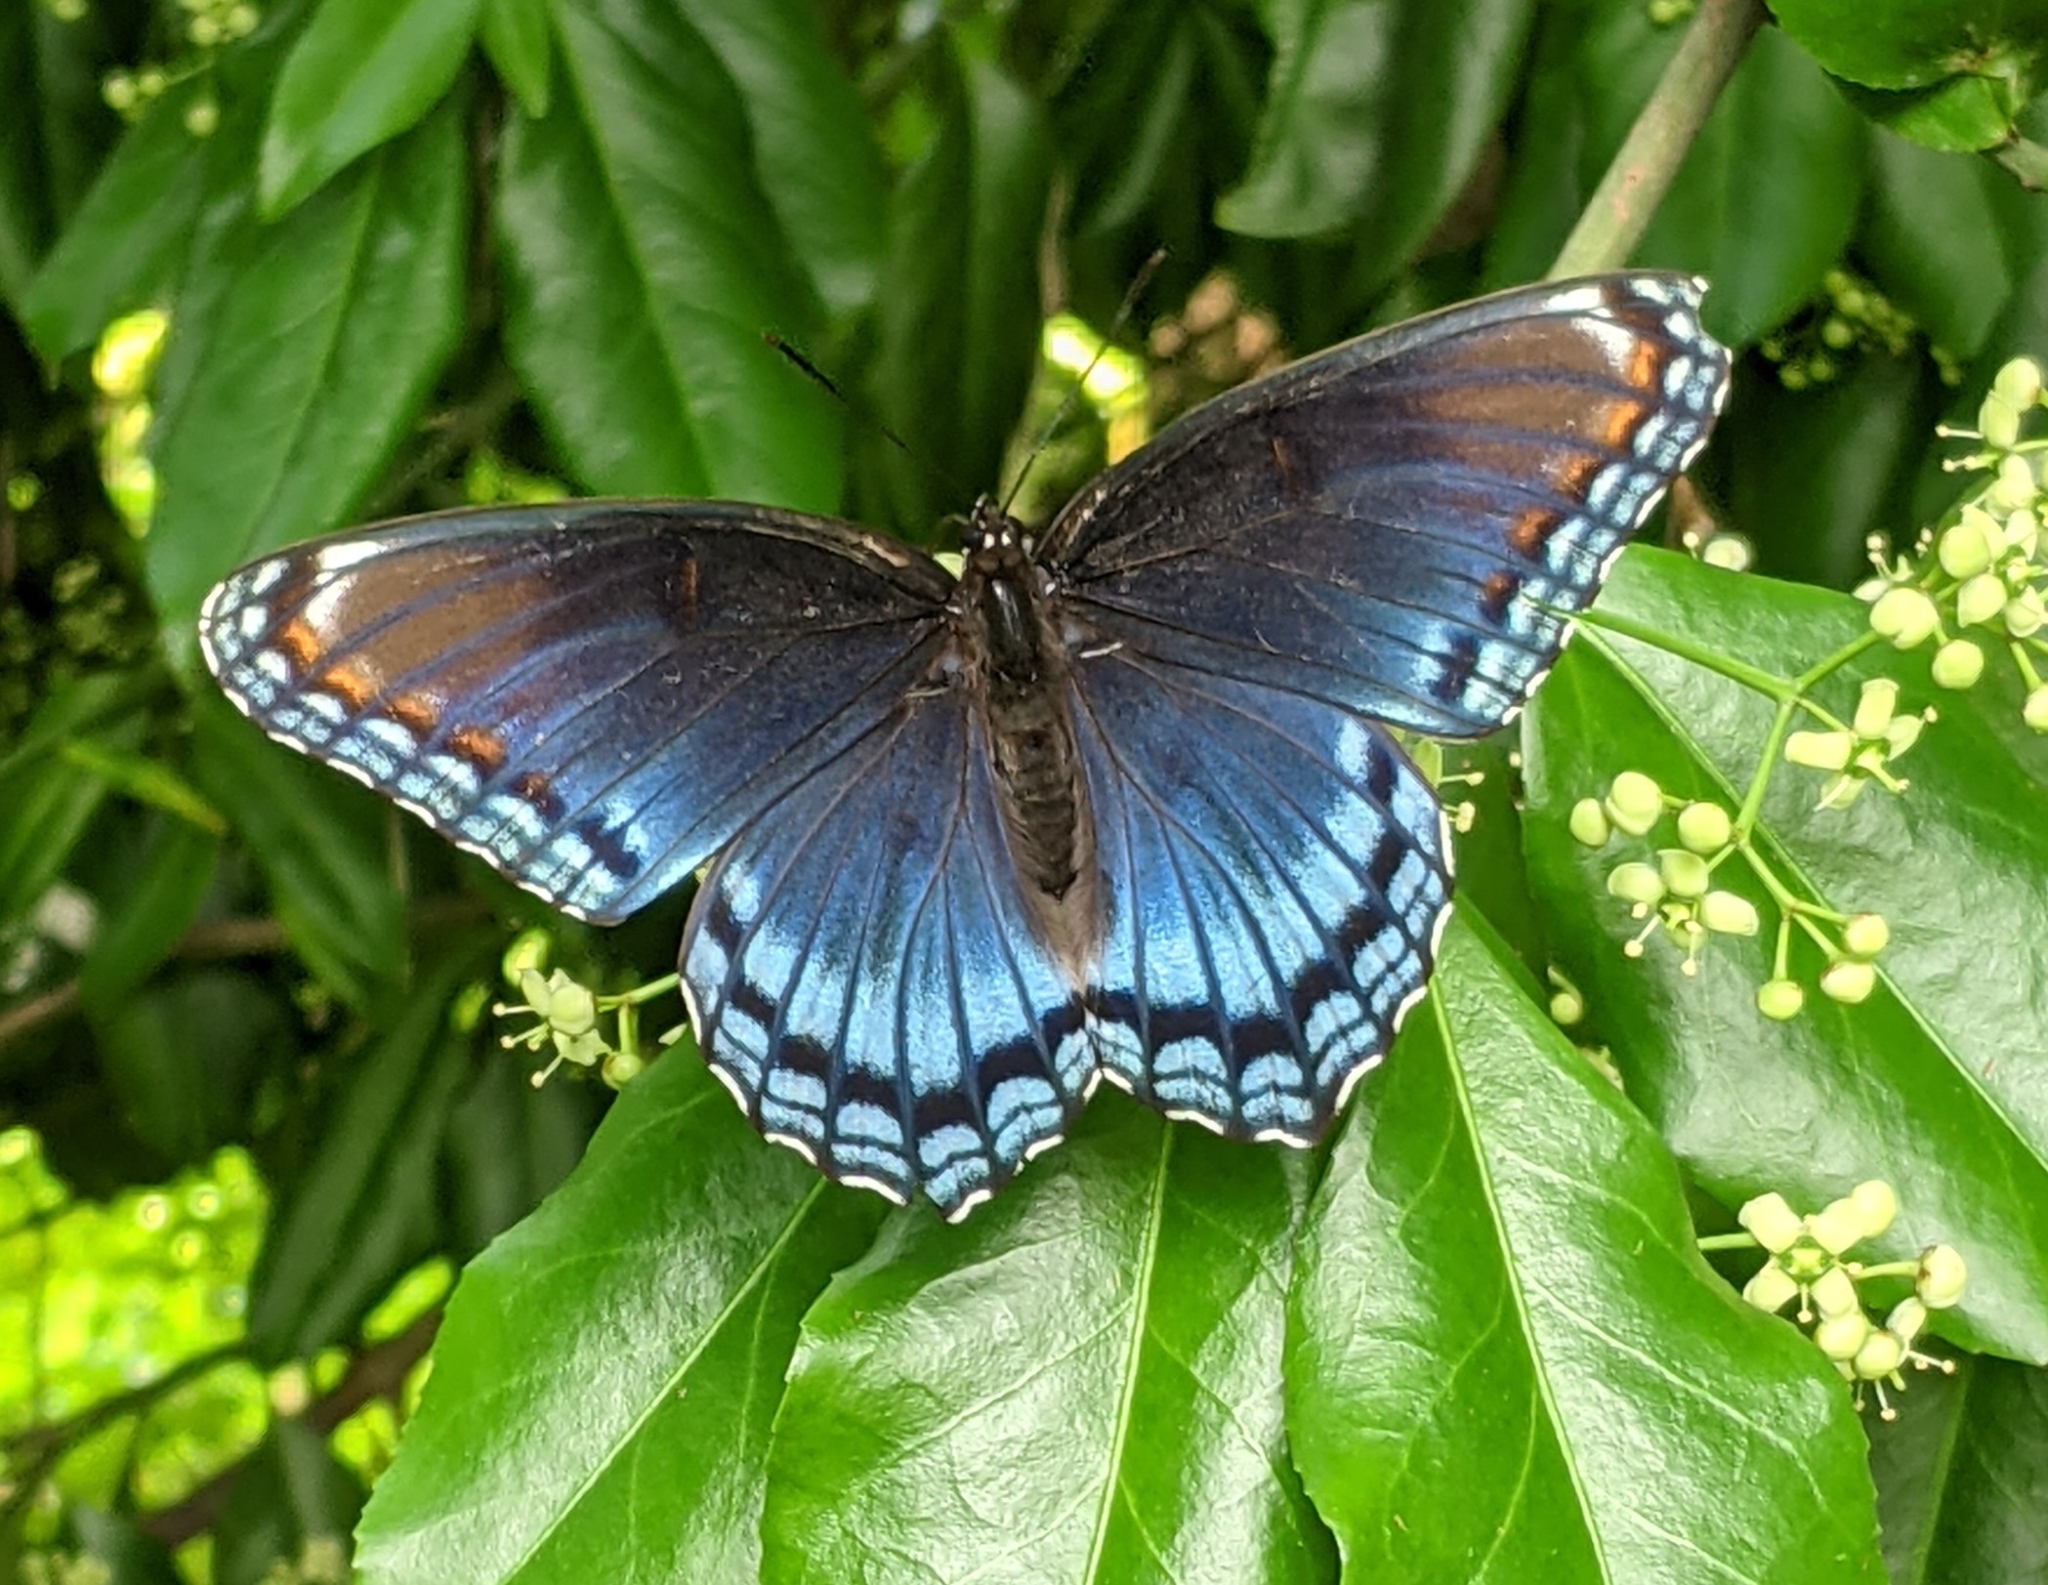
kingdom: Animalia
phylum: Arthropoda
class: Insecta
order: Lepidoptera
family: Nymphalidae
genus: Limenitis
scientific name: Limenitis arthemis
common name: Red-spotted admiral
